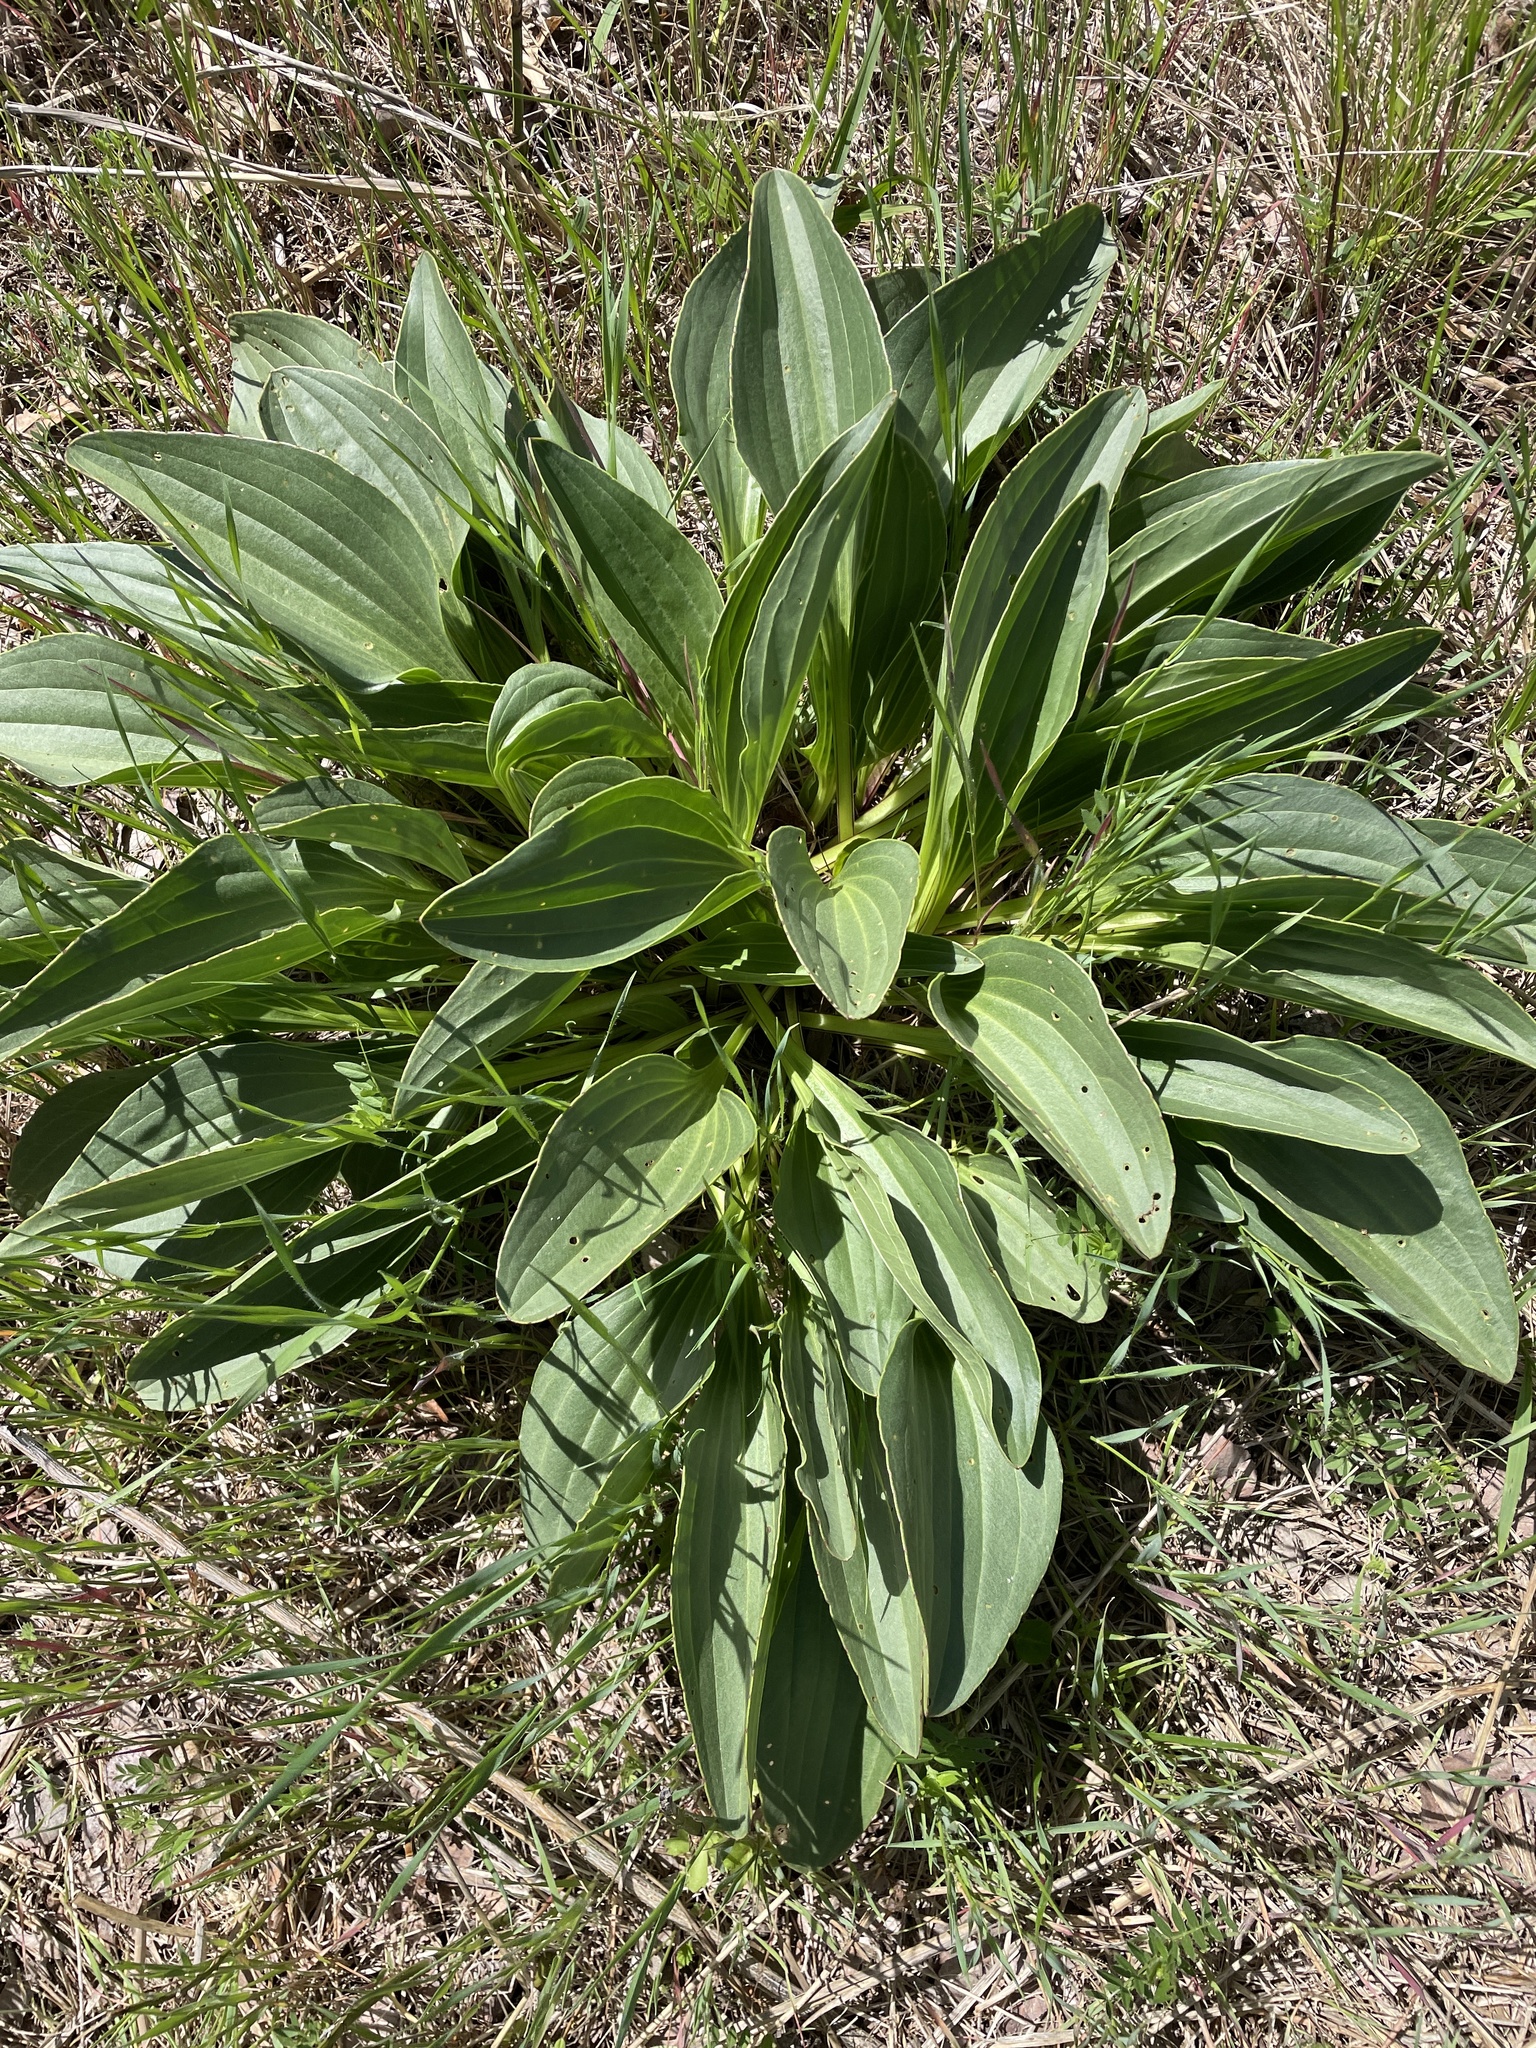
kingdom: Plantae
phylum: Tracheophyta
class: Magnoliopsida
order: Asterales
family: Asteraceae
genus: Arnoglossum
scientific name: Arnoglossum plantagineum
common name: Groove-stemmed indian-plantain
